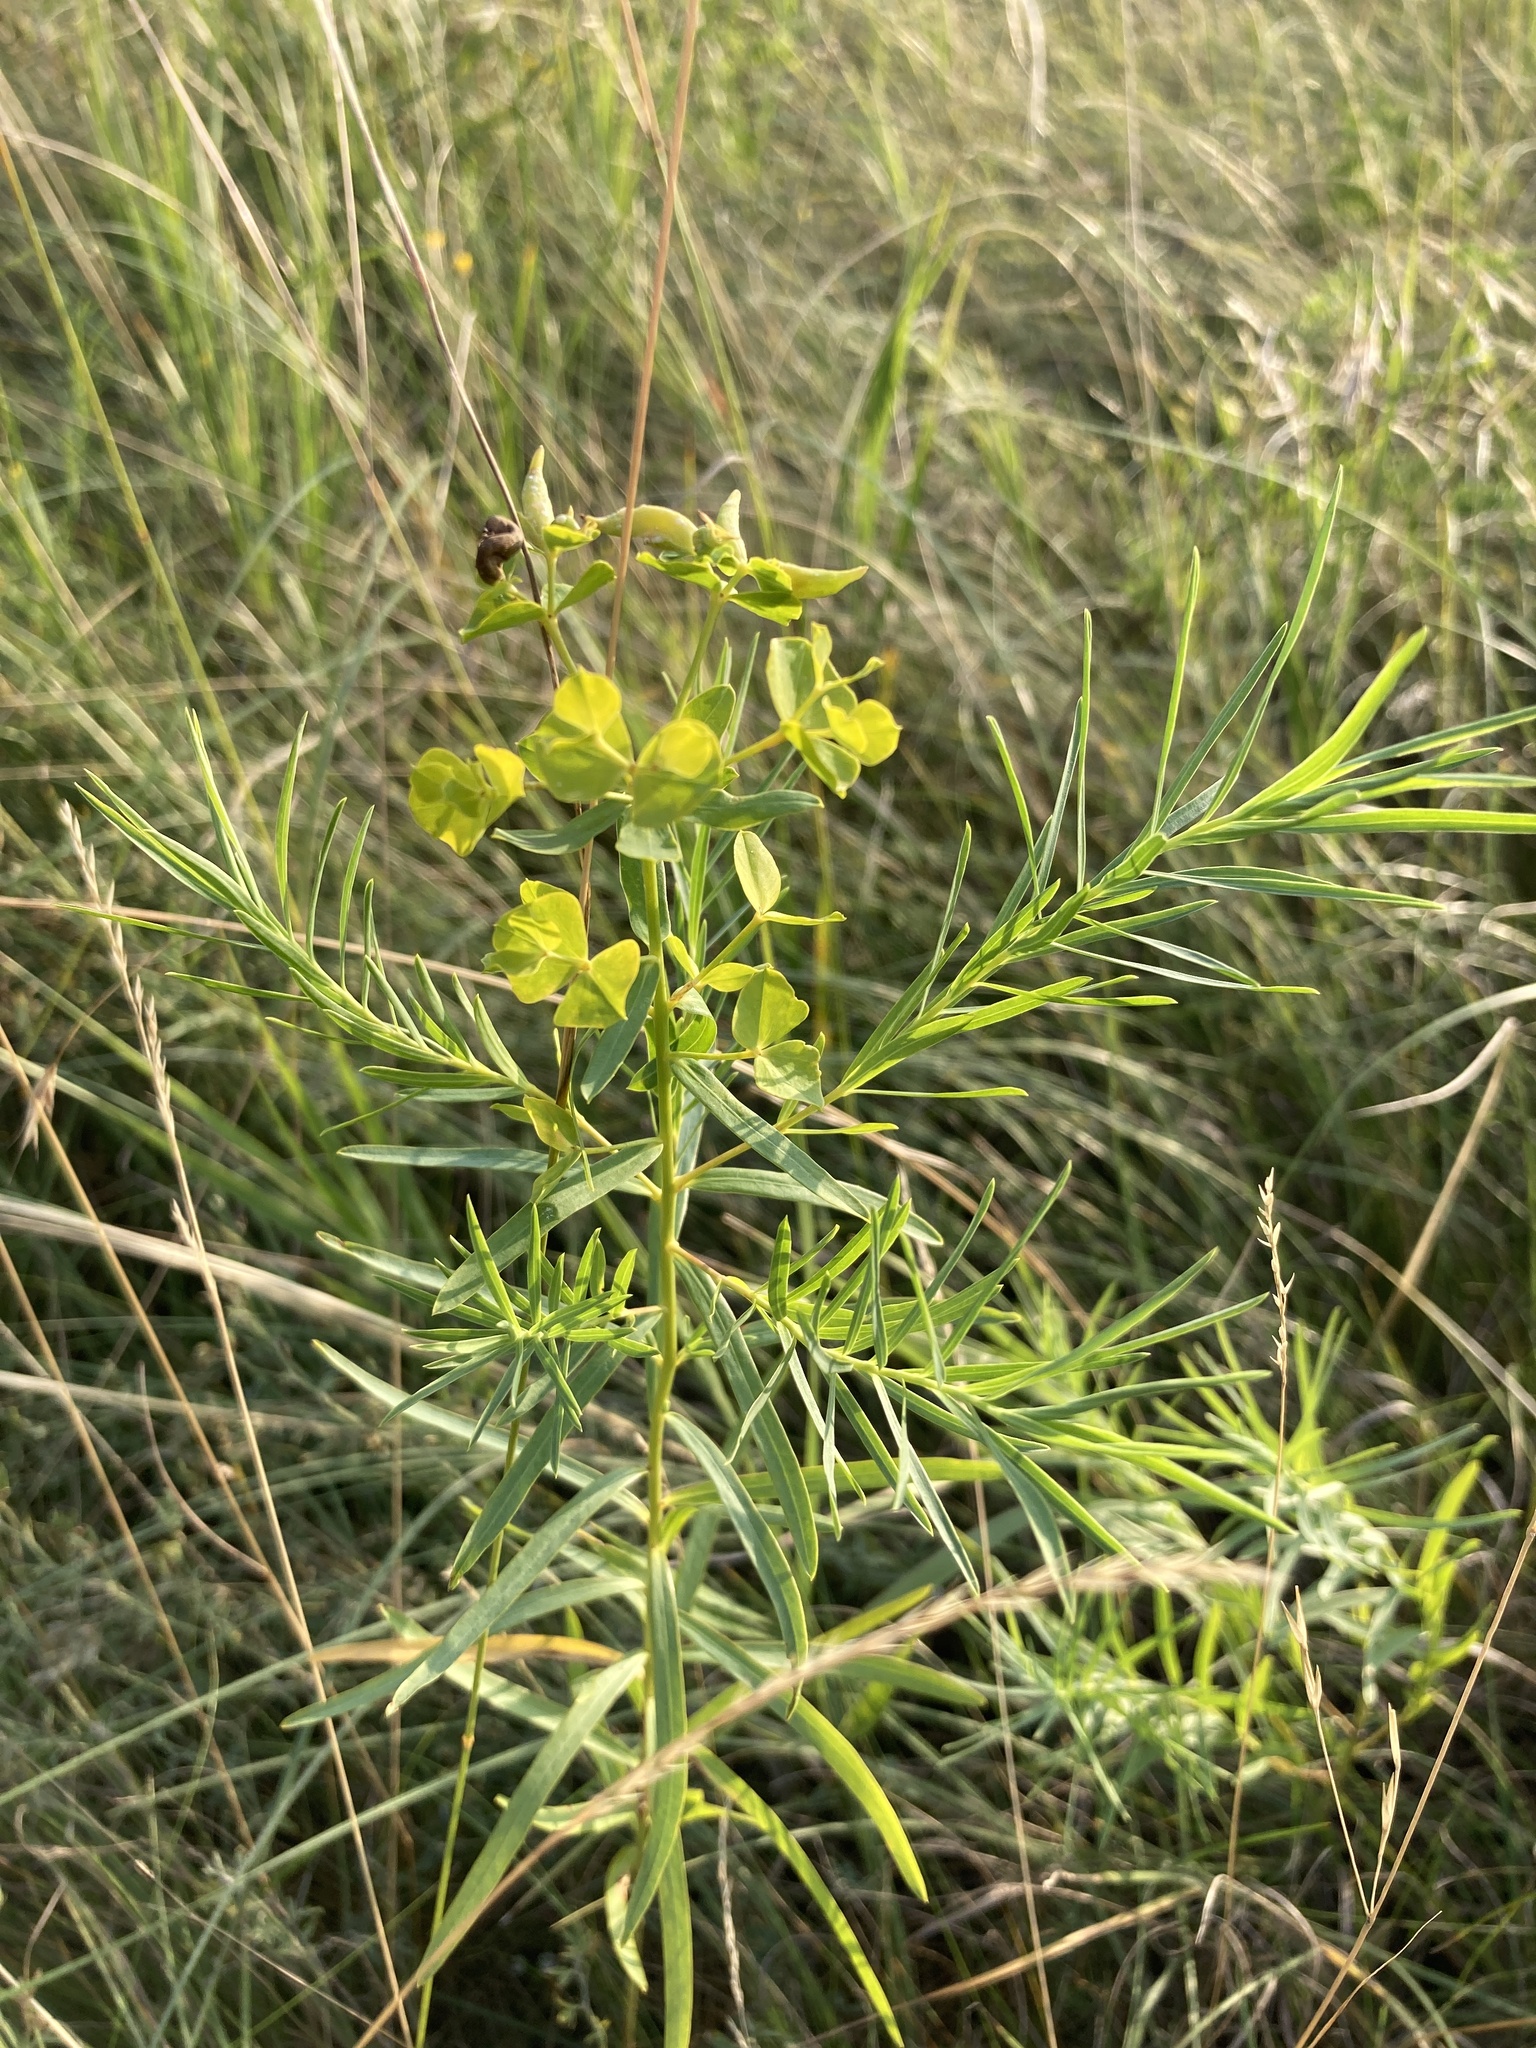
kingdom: Plantae
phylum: Tracheophyta
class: Magnoliopsida
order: Malpighiales
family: Euphorbiaceae
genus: Euphorbia
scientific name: Euphorbia virgata
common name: Leafy spurge
